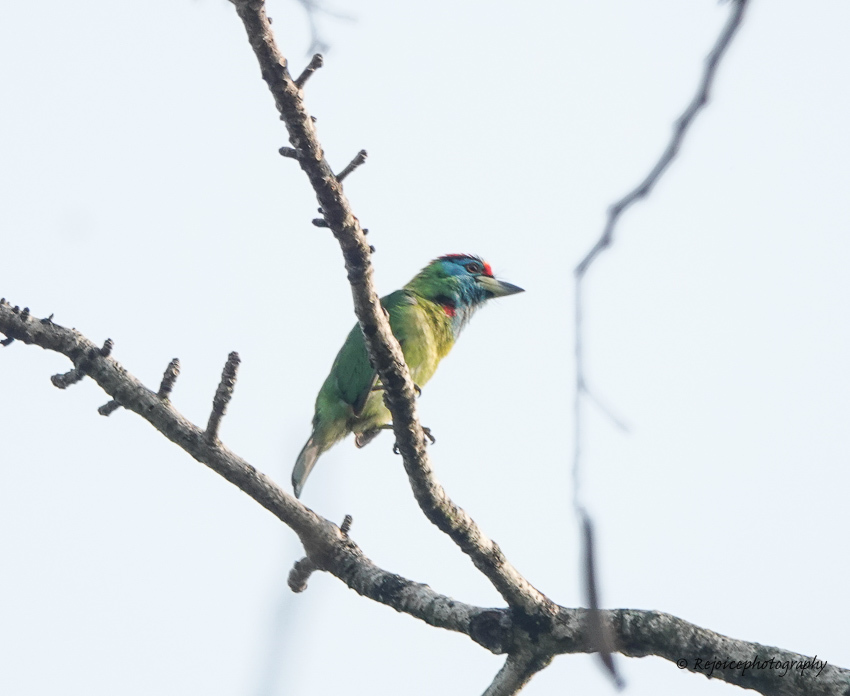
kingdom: Animalia
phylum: Chordata
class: Aves
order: Piciformes
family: Megalaimidae
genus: Psilopogon
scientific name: Psilopogon asiaticus
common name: Blue-throated barbet
